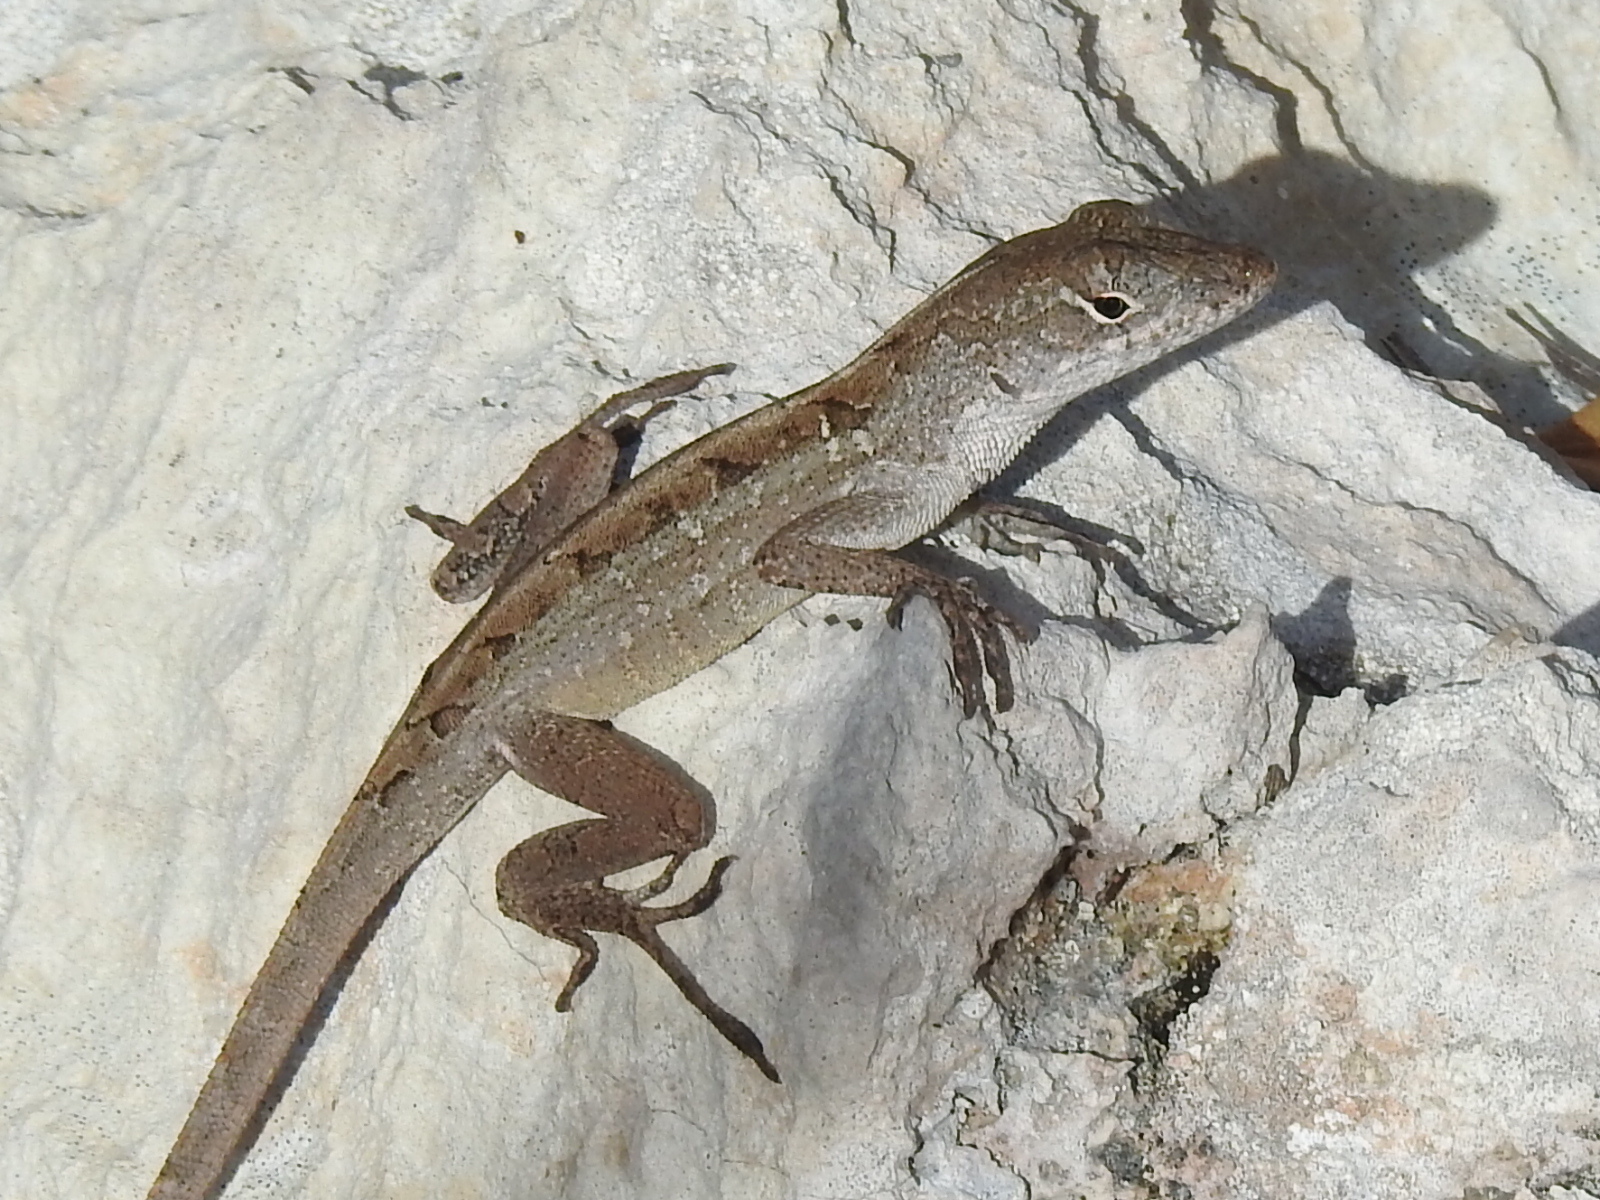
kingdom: Animalia
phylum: Chordata
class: Squamata
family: Dactyloidae
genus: Anolis
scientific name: Anolis sagrei
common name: Brown anole
